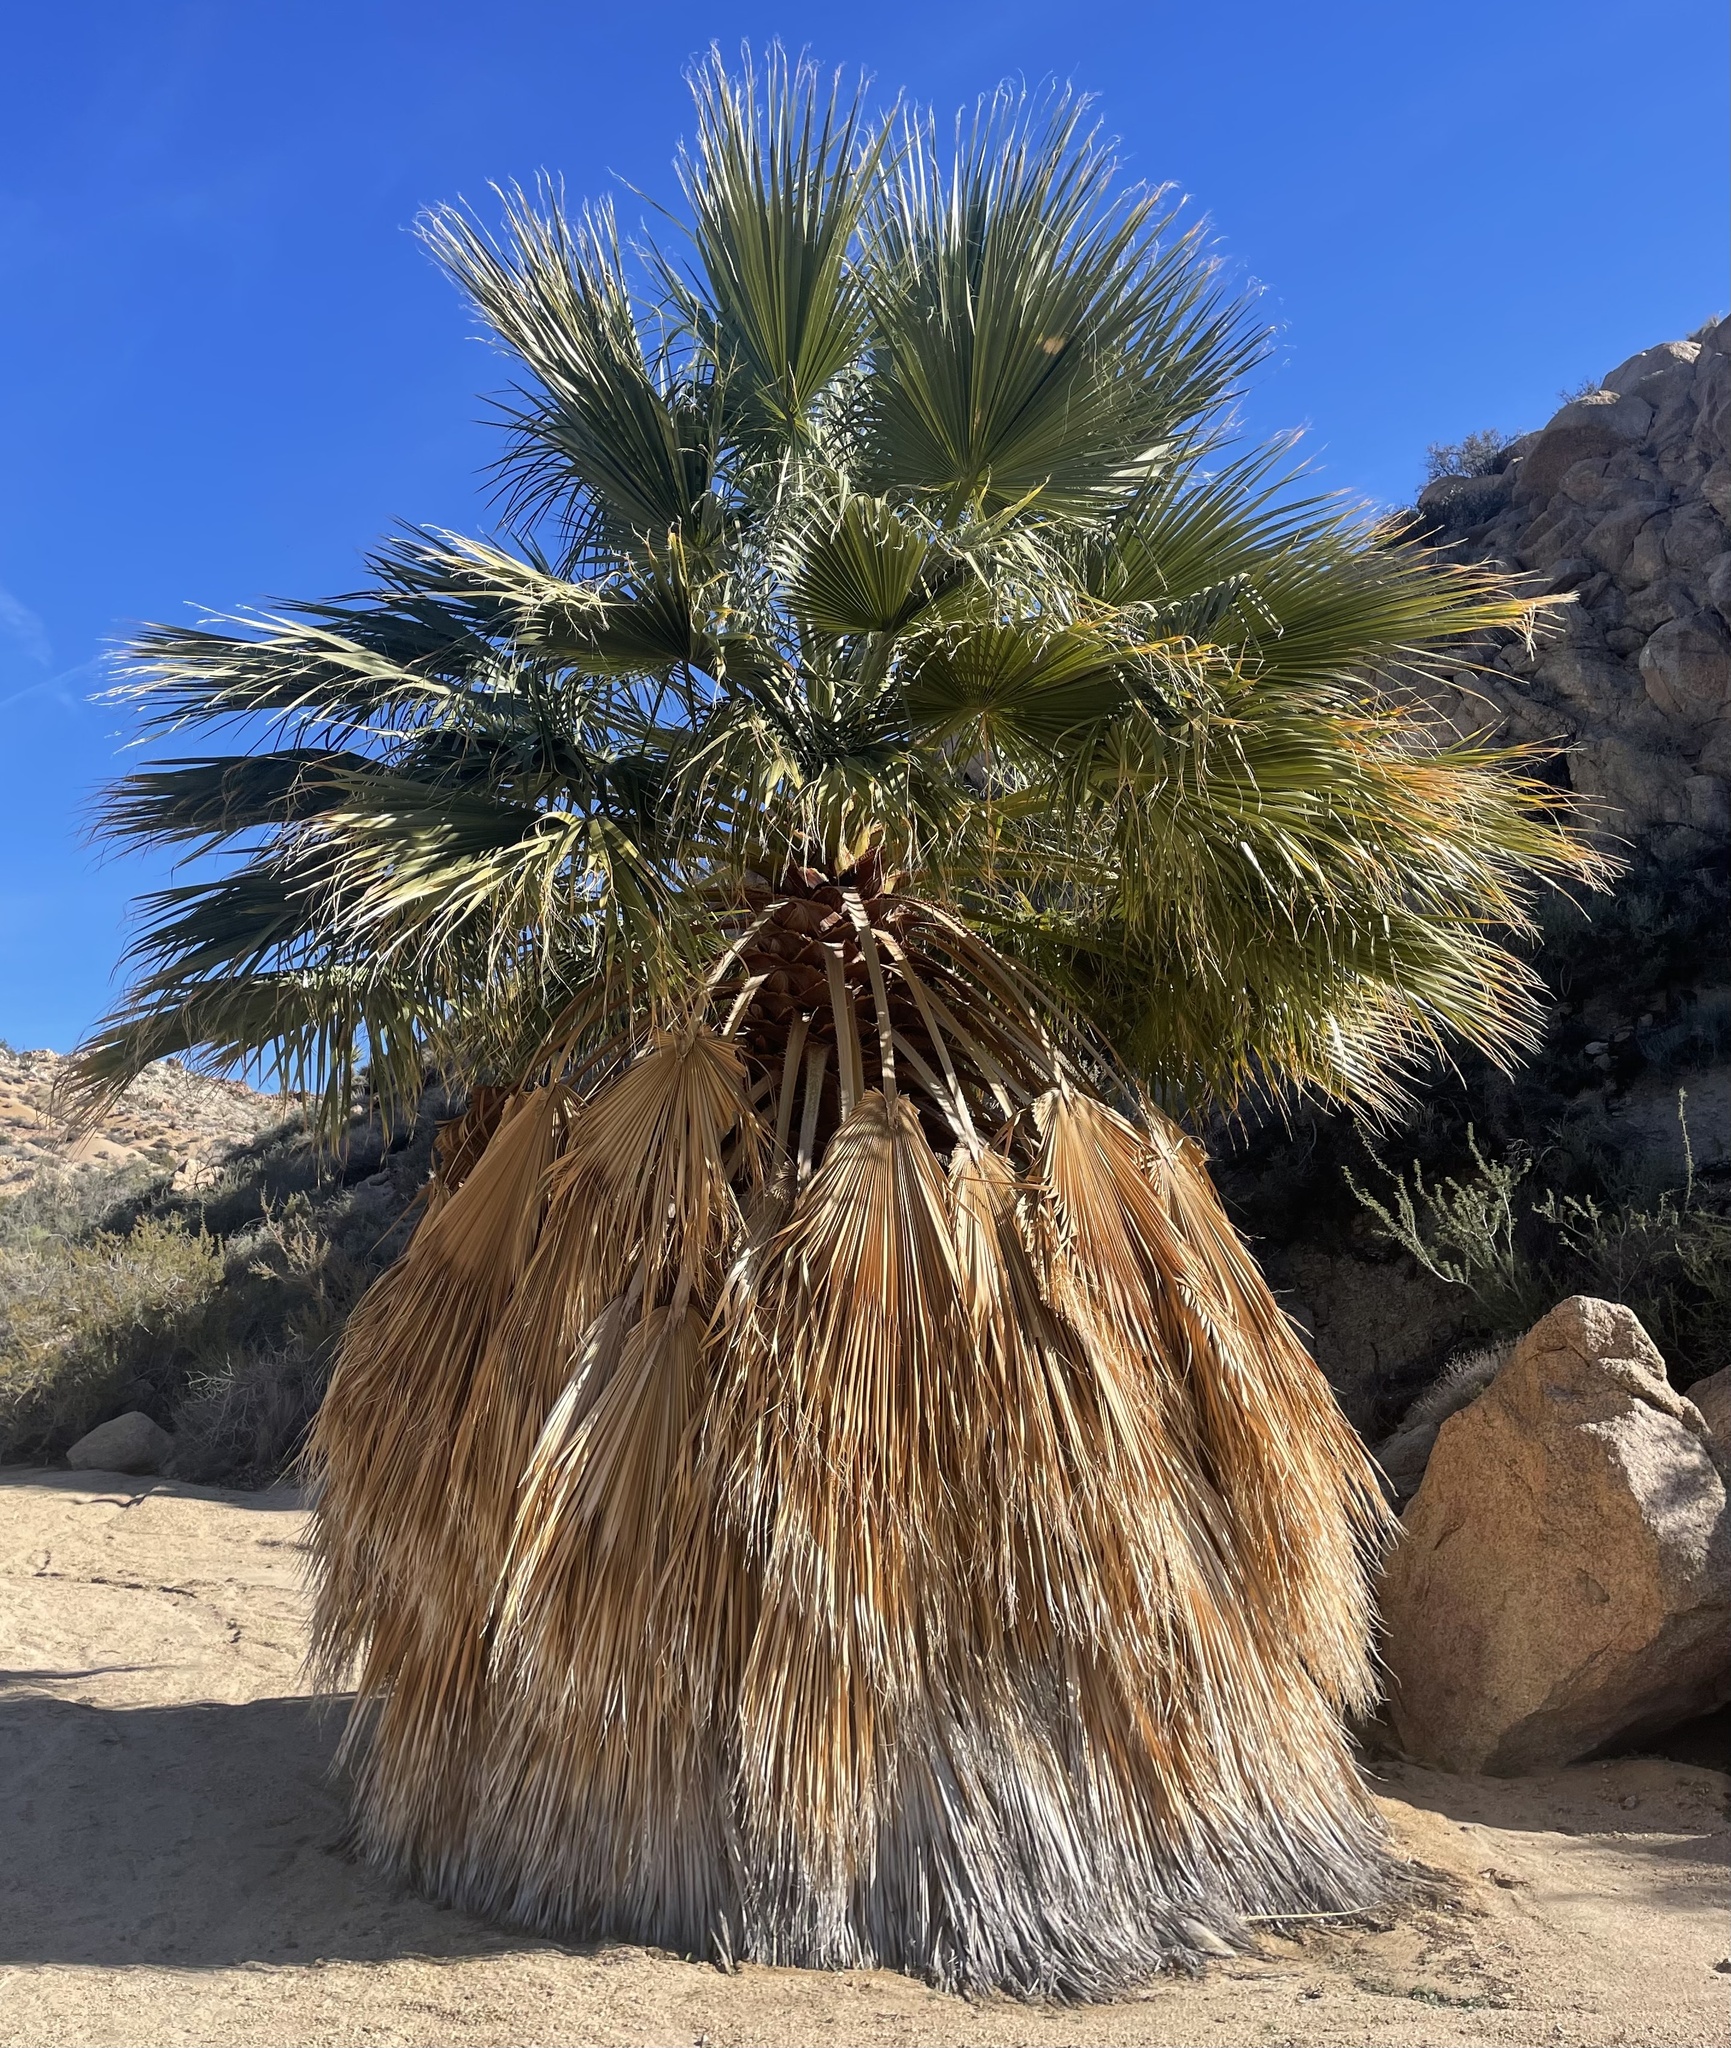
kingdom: Plantae
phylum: Tracheophyta
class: Liliopsida
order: Arecales
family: Arecaceae
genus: Washingtonia
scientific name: Washingtonia filifera
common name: California fan palm
